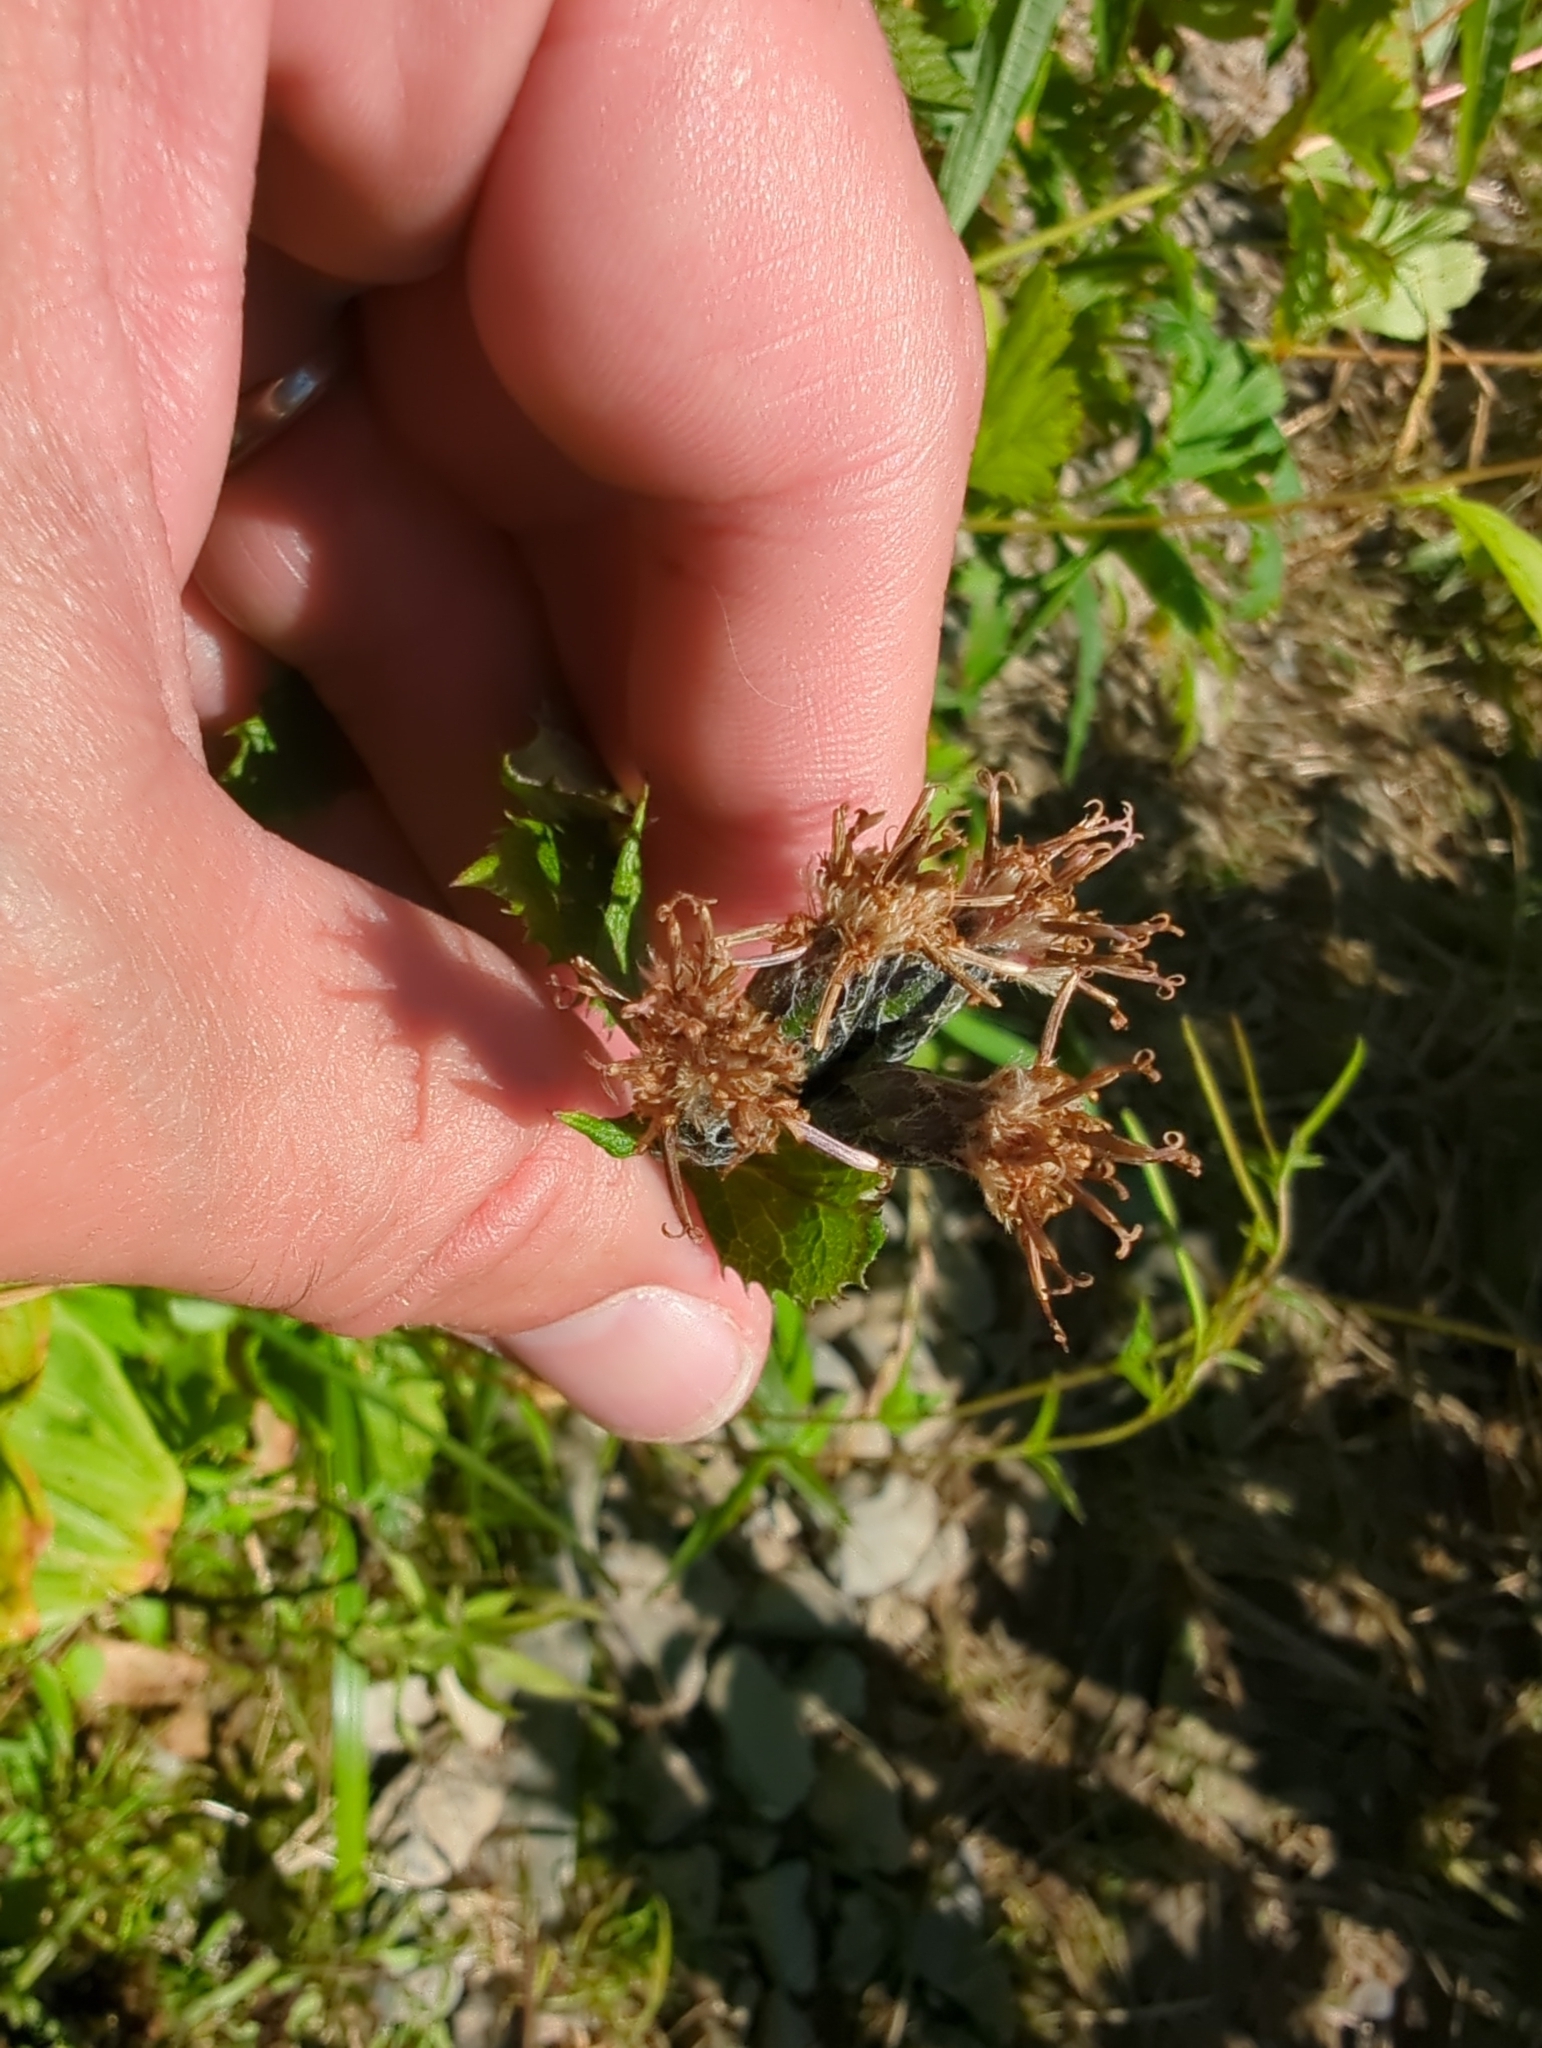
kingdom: Plantae
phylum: Tracheophyta
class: Magnoliopsida
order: Asterales
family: Asteraceae
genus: Saussurea
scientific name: Saussurea americana
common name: American saw-wort
